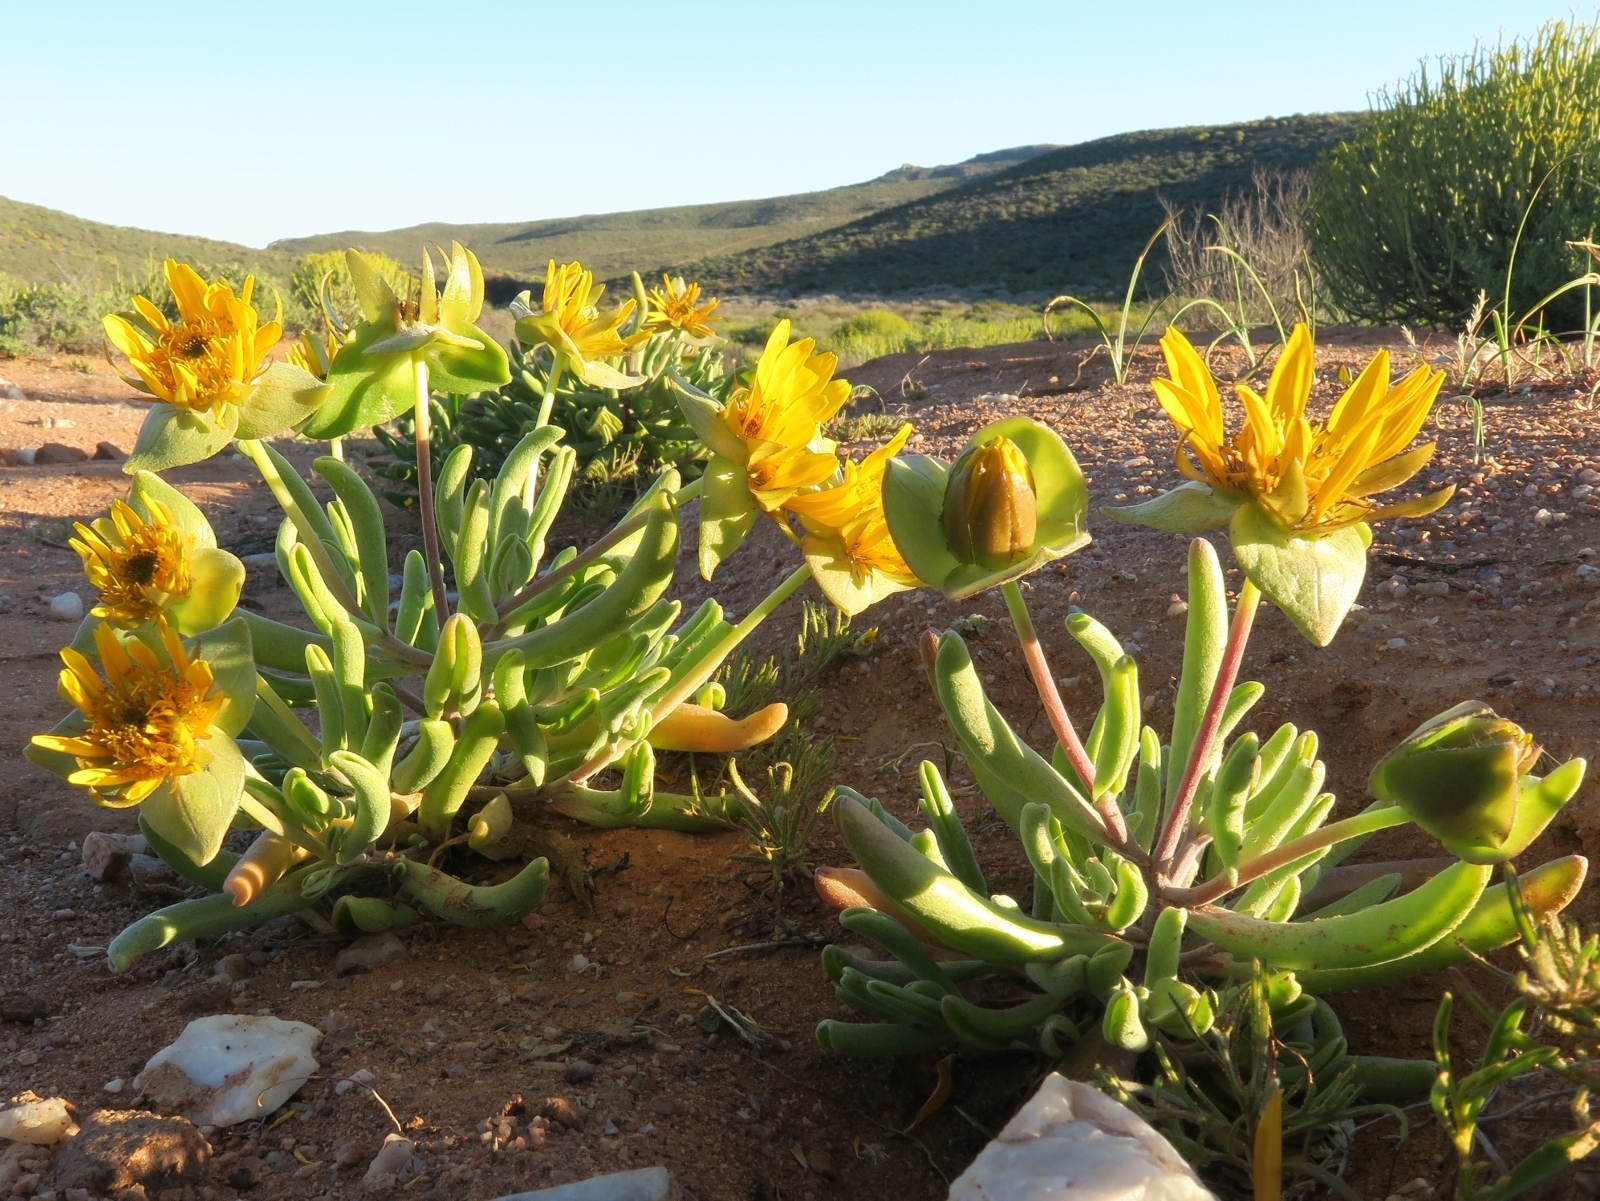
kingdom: Plantae
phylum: Tracheophyta
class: Magnoliopsida
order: Asterales
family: Asteraceae
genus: Didelta
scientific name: Didelta carnosa
